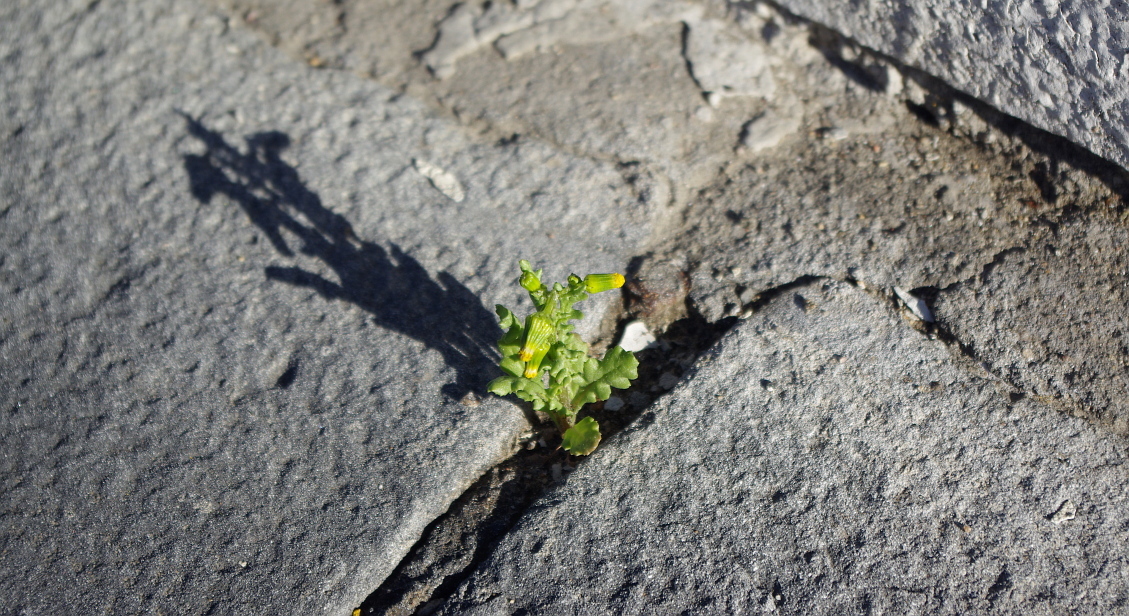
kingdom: Plantae
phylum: Tracheophyta
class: Magnoliopsida
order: Asterales
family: Asteraceae
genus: Senecio
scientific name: Senecio vulgaris
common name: Old-man-in-the-spring
